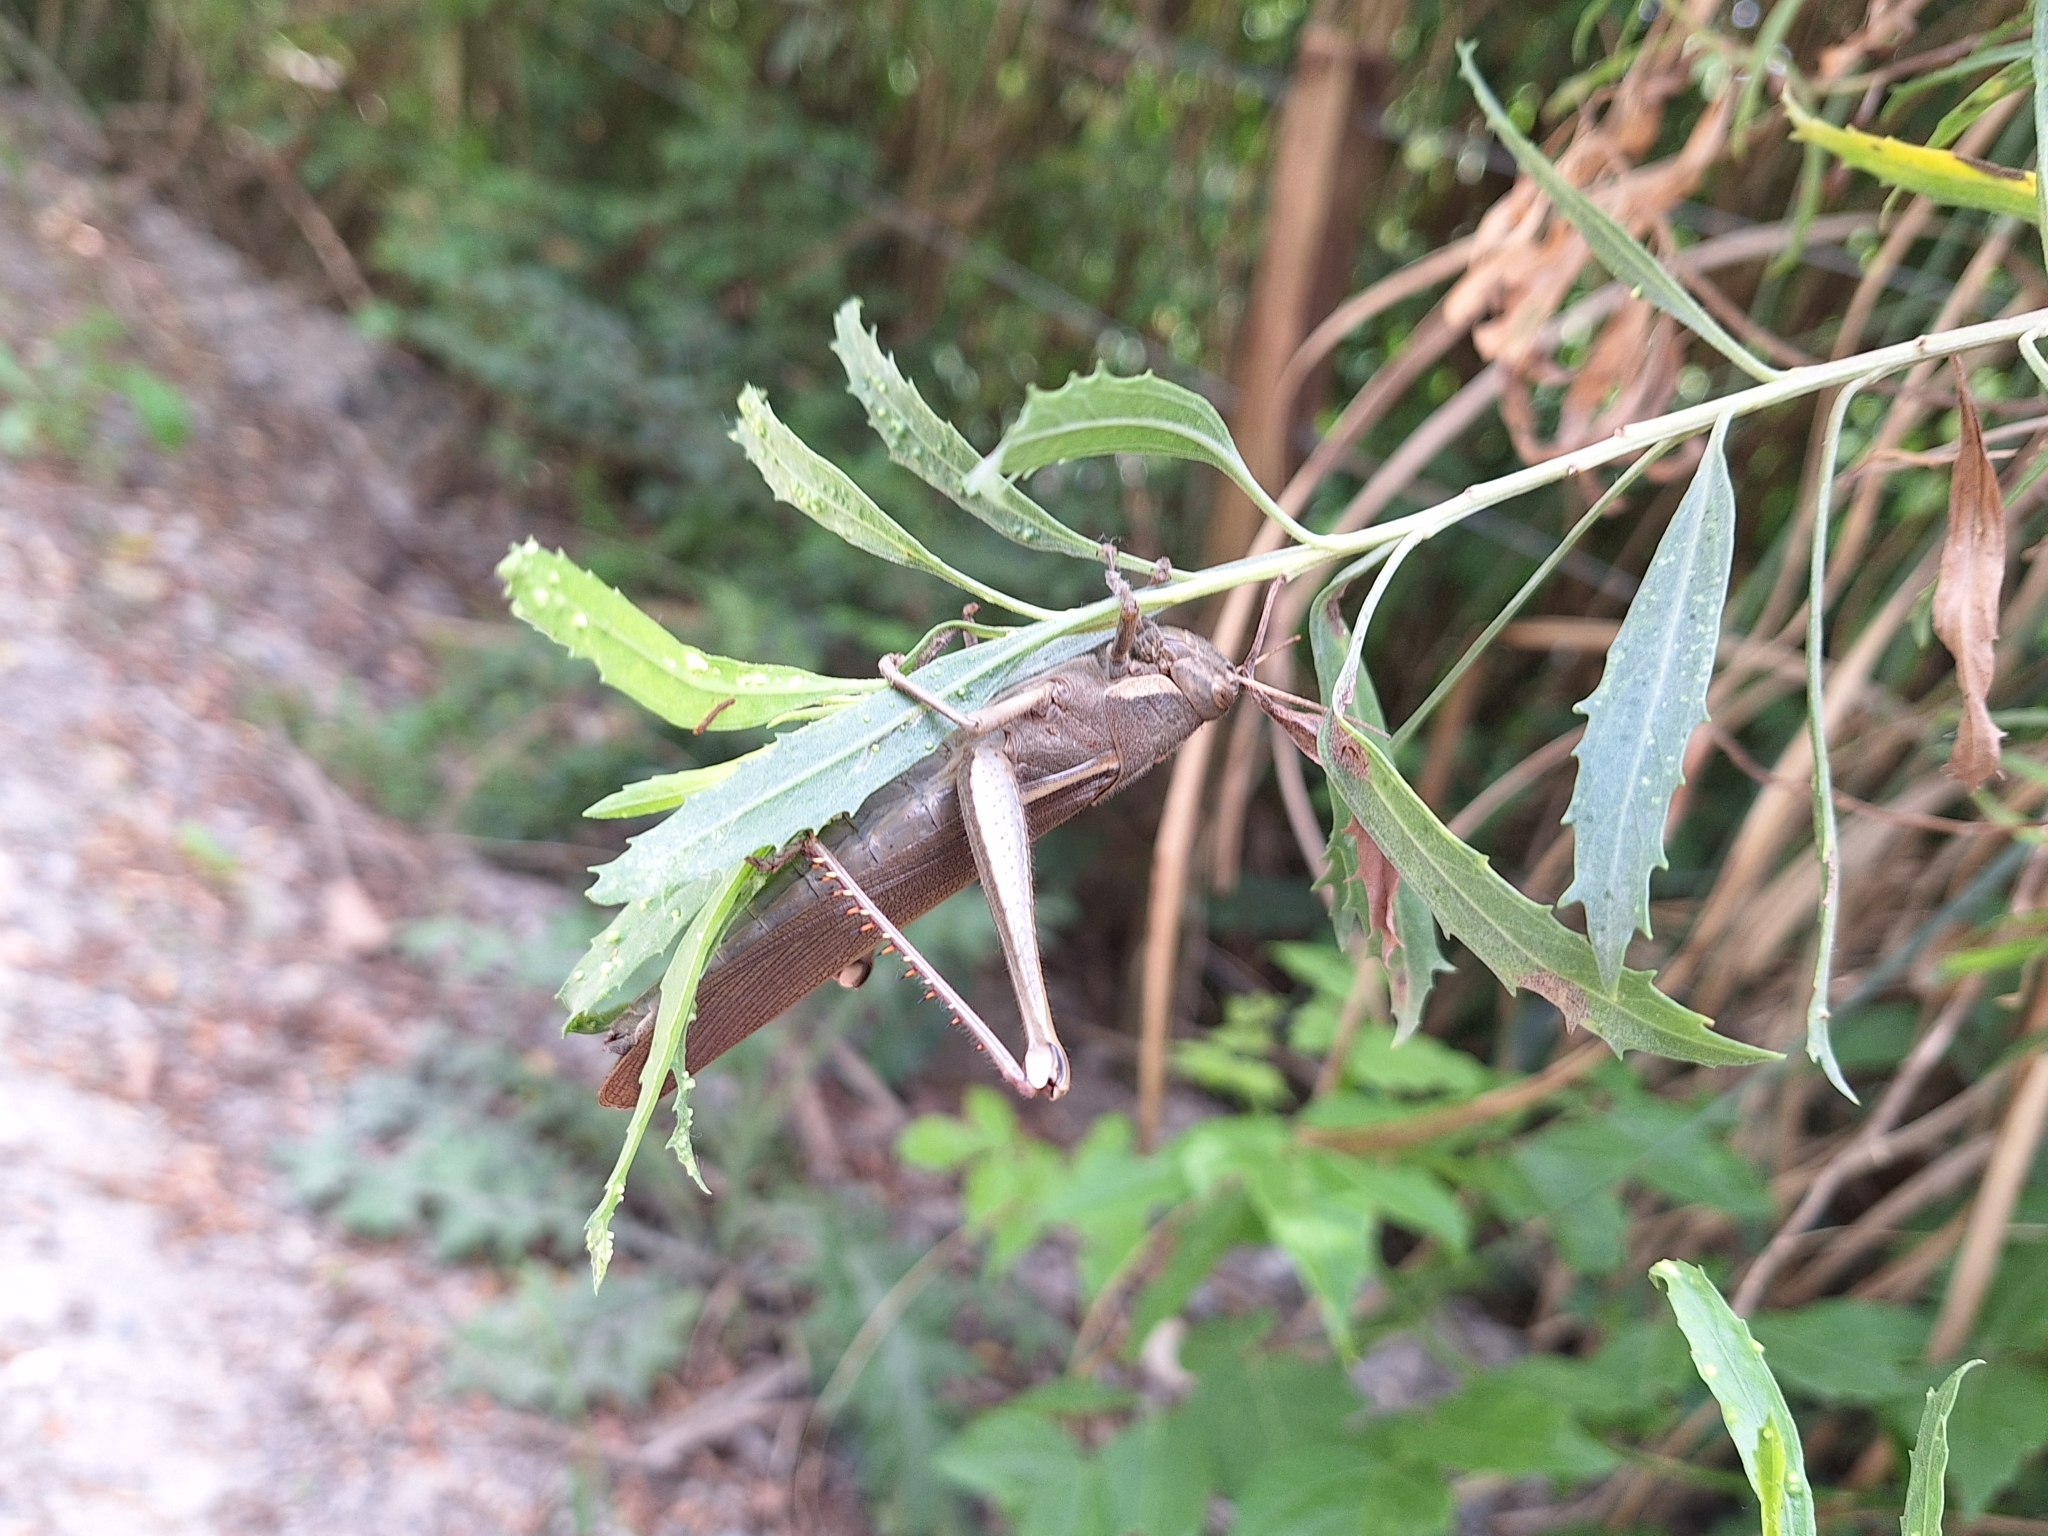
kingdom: Animalia
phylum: Arthropoda
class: Insecta
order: Orthoptera
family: Acrididae
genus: Schistocerca
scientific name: Schistocerca flavofasciata
